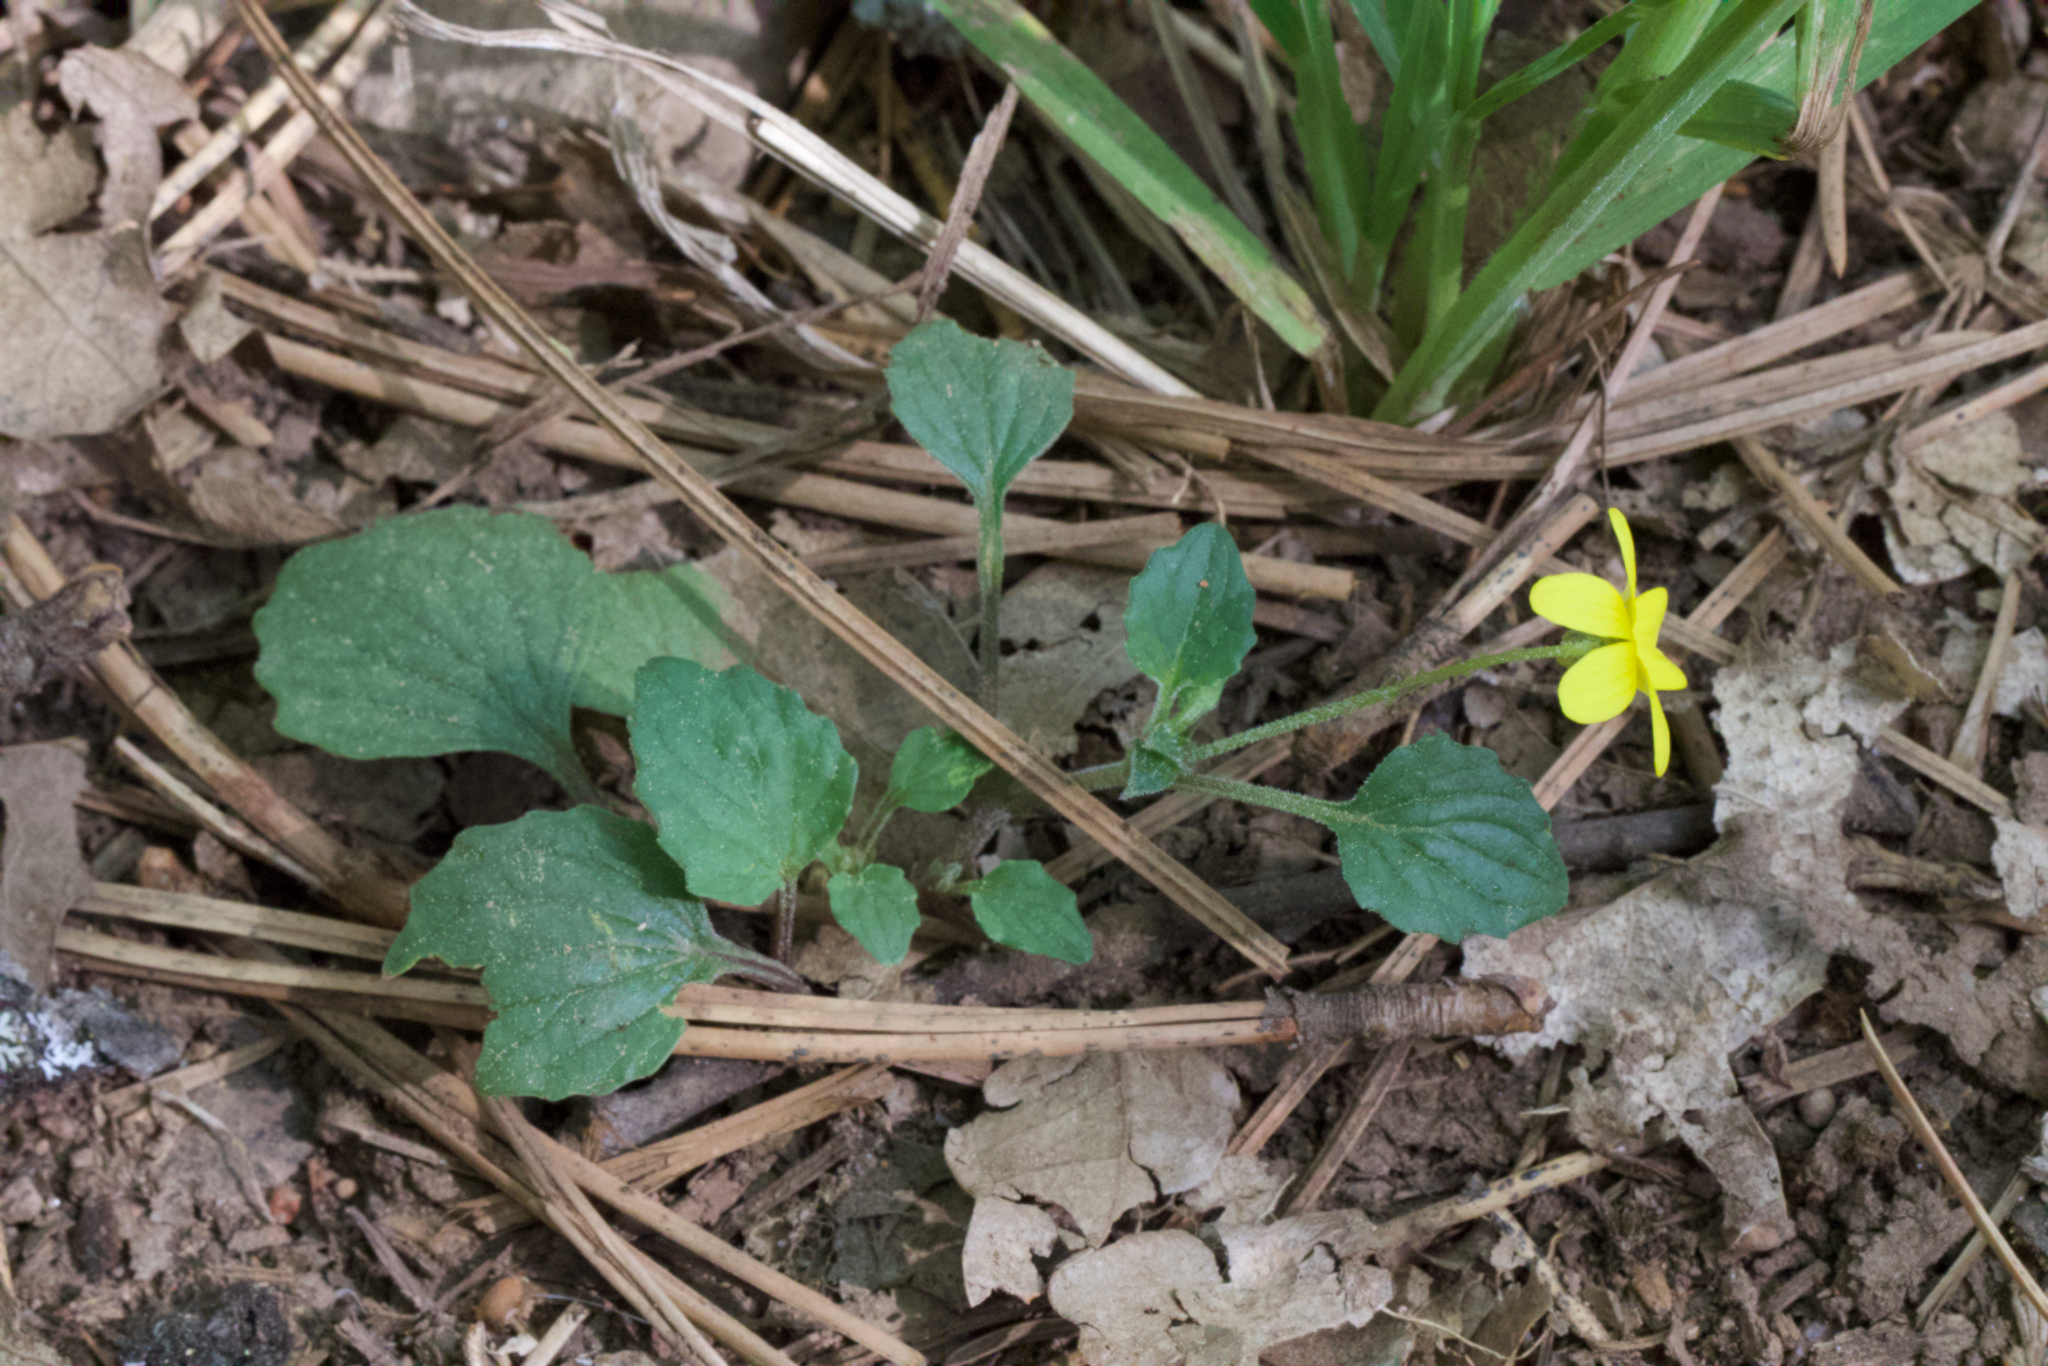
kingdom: Plantae
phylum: Tracheophyta
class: Magnoliopsida
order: Malpighiales
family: Violaceae
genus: Viola
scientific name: Viola purpurea
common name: Pine violet
